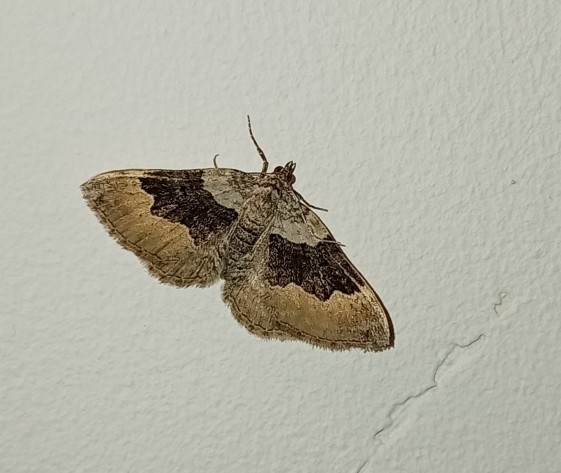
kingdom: Animalia
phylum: Arthropoda
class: Insecta
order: Lepidoptera
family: Geometridae
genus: Xanthorhoe
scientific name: Xanthorhoe quadrifasiata
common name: Large twin-spot carpet
